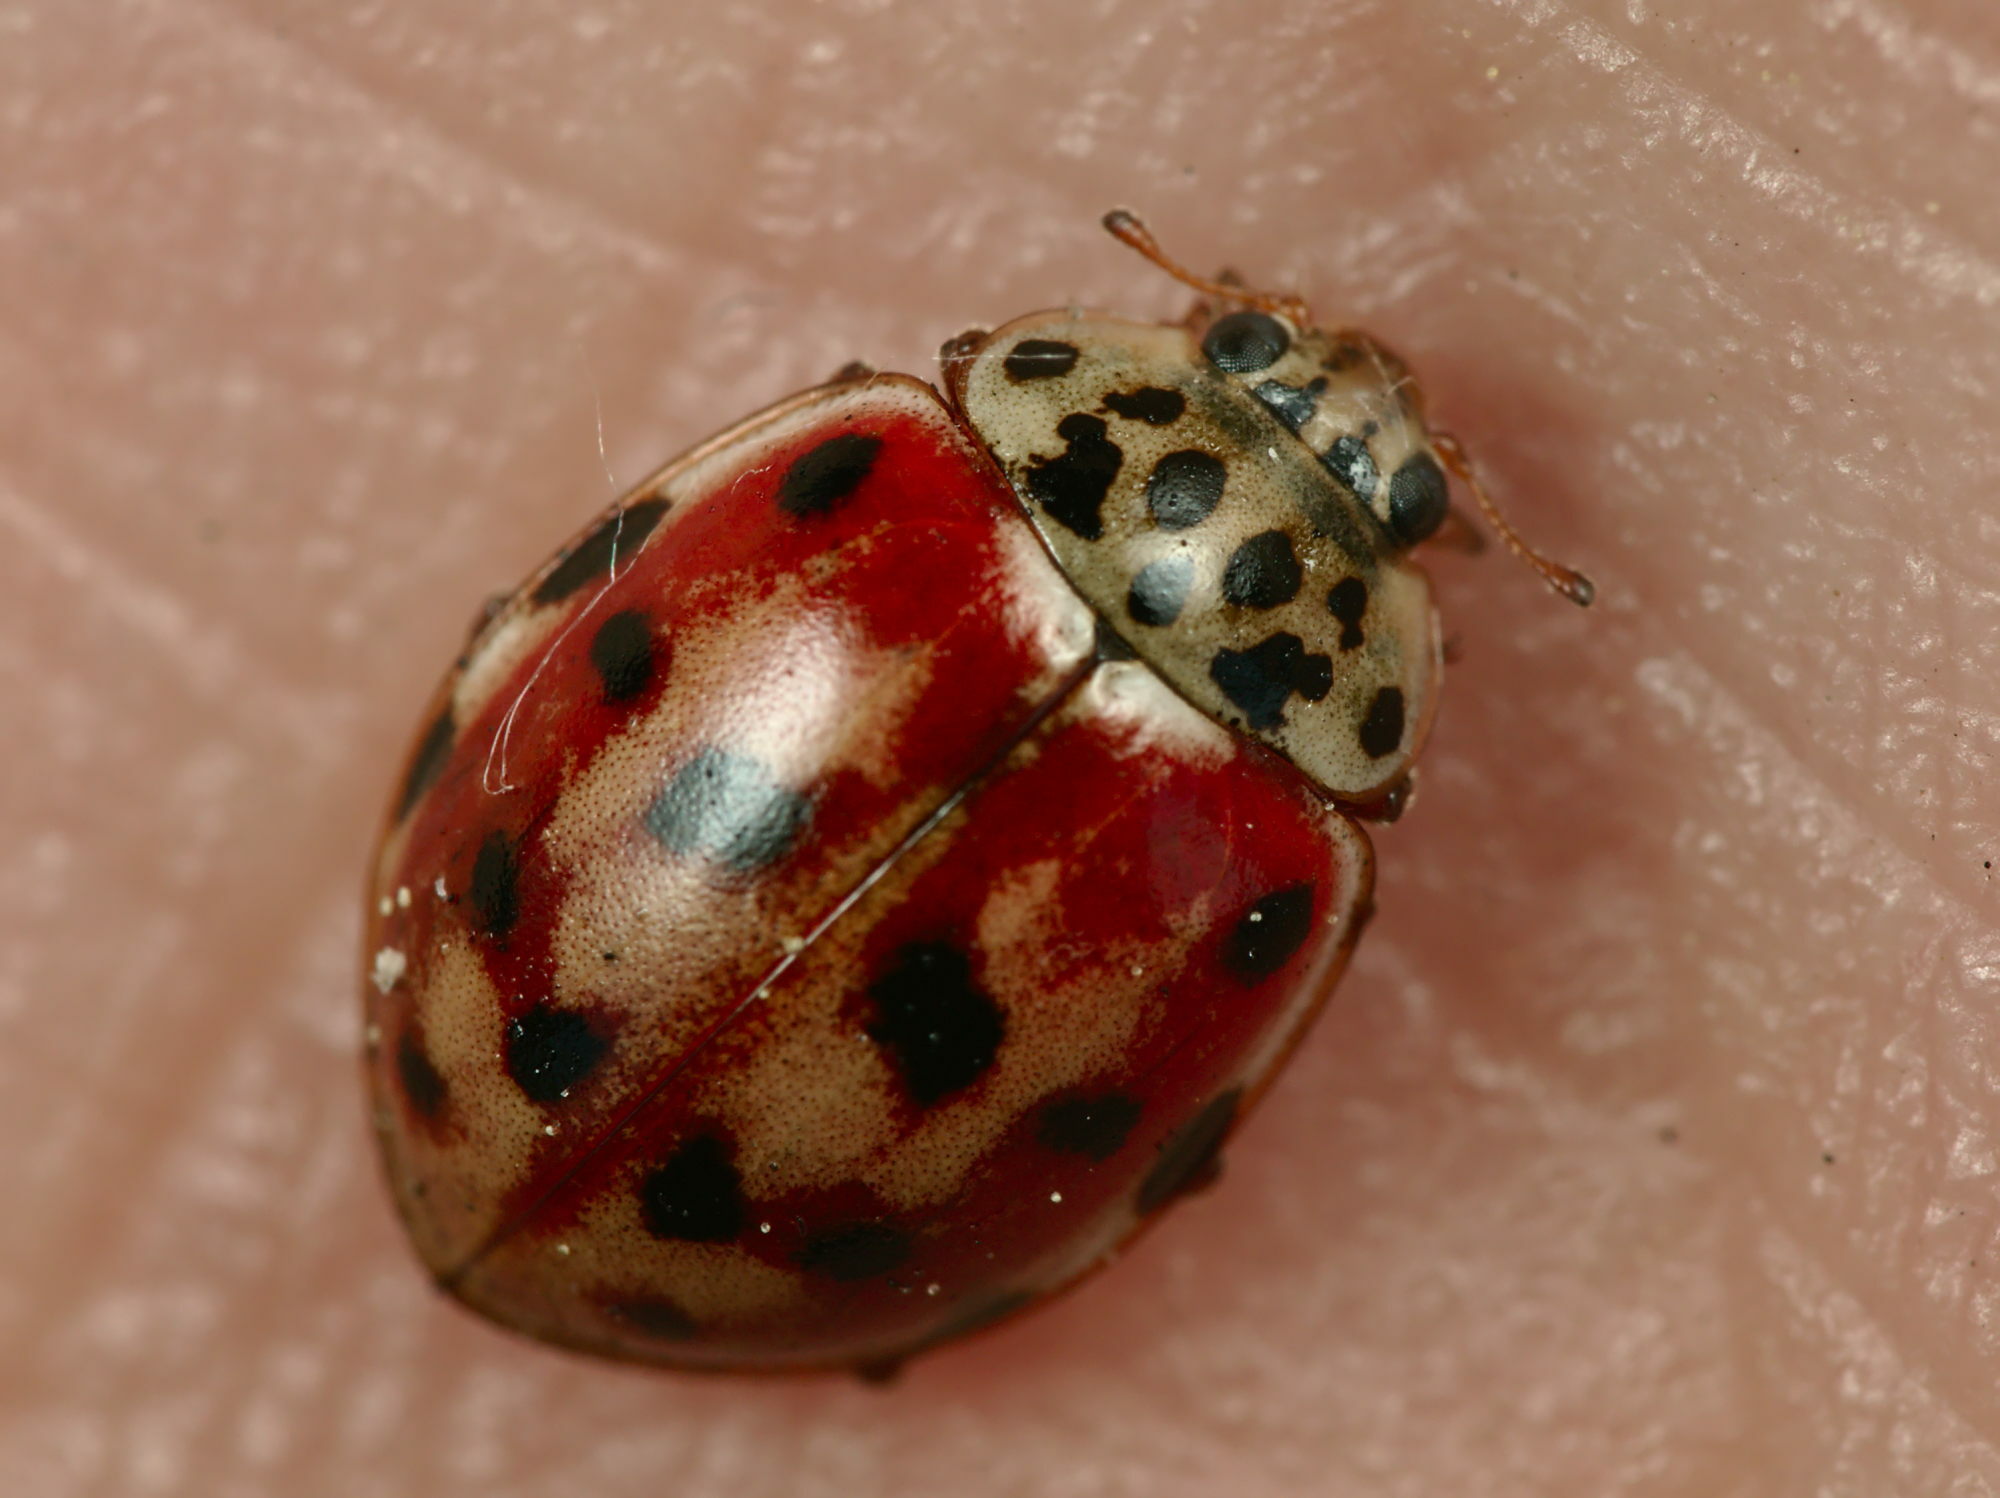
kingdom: Animalia
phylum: Arthropoda
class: Insecta
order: Coleoptera
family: Coccinellidae
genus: Harmonia
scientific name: Harmonia quadripunctata
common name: Cream-streaked ladybird
